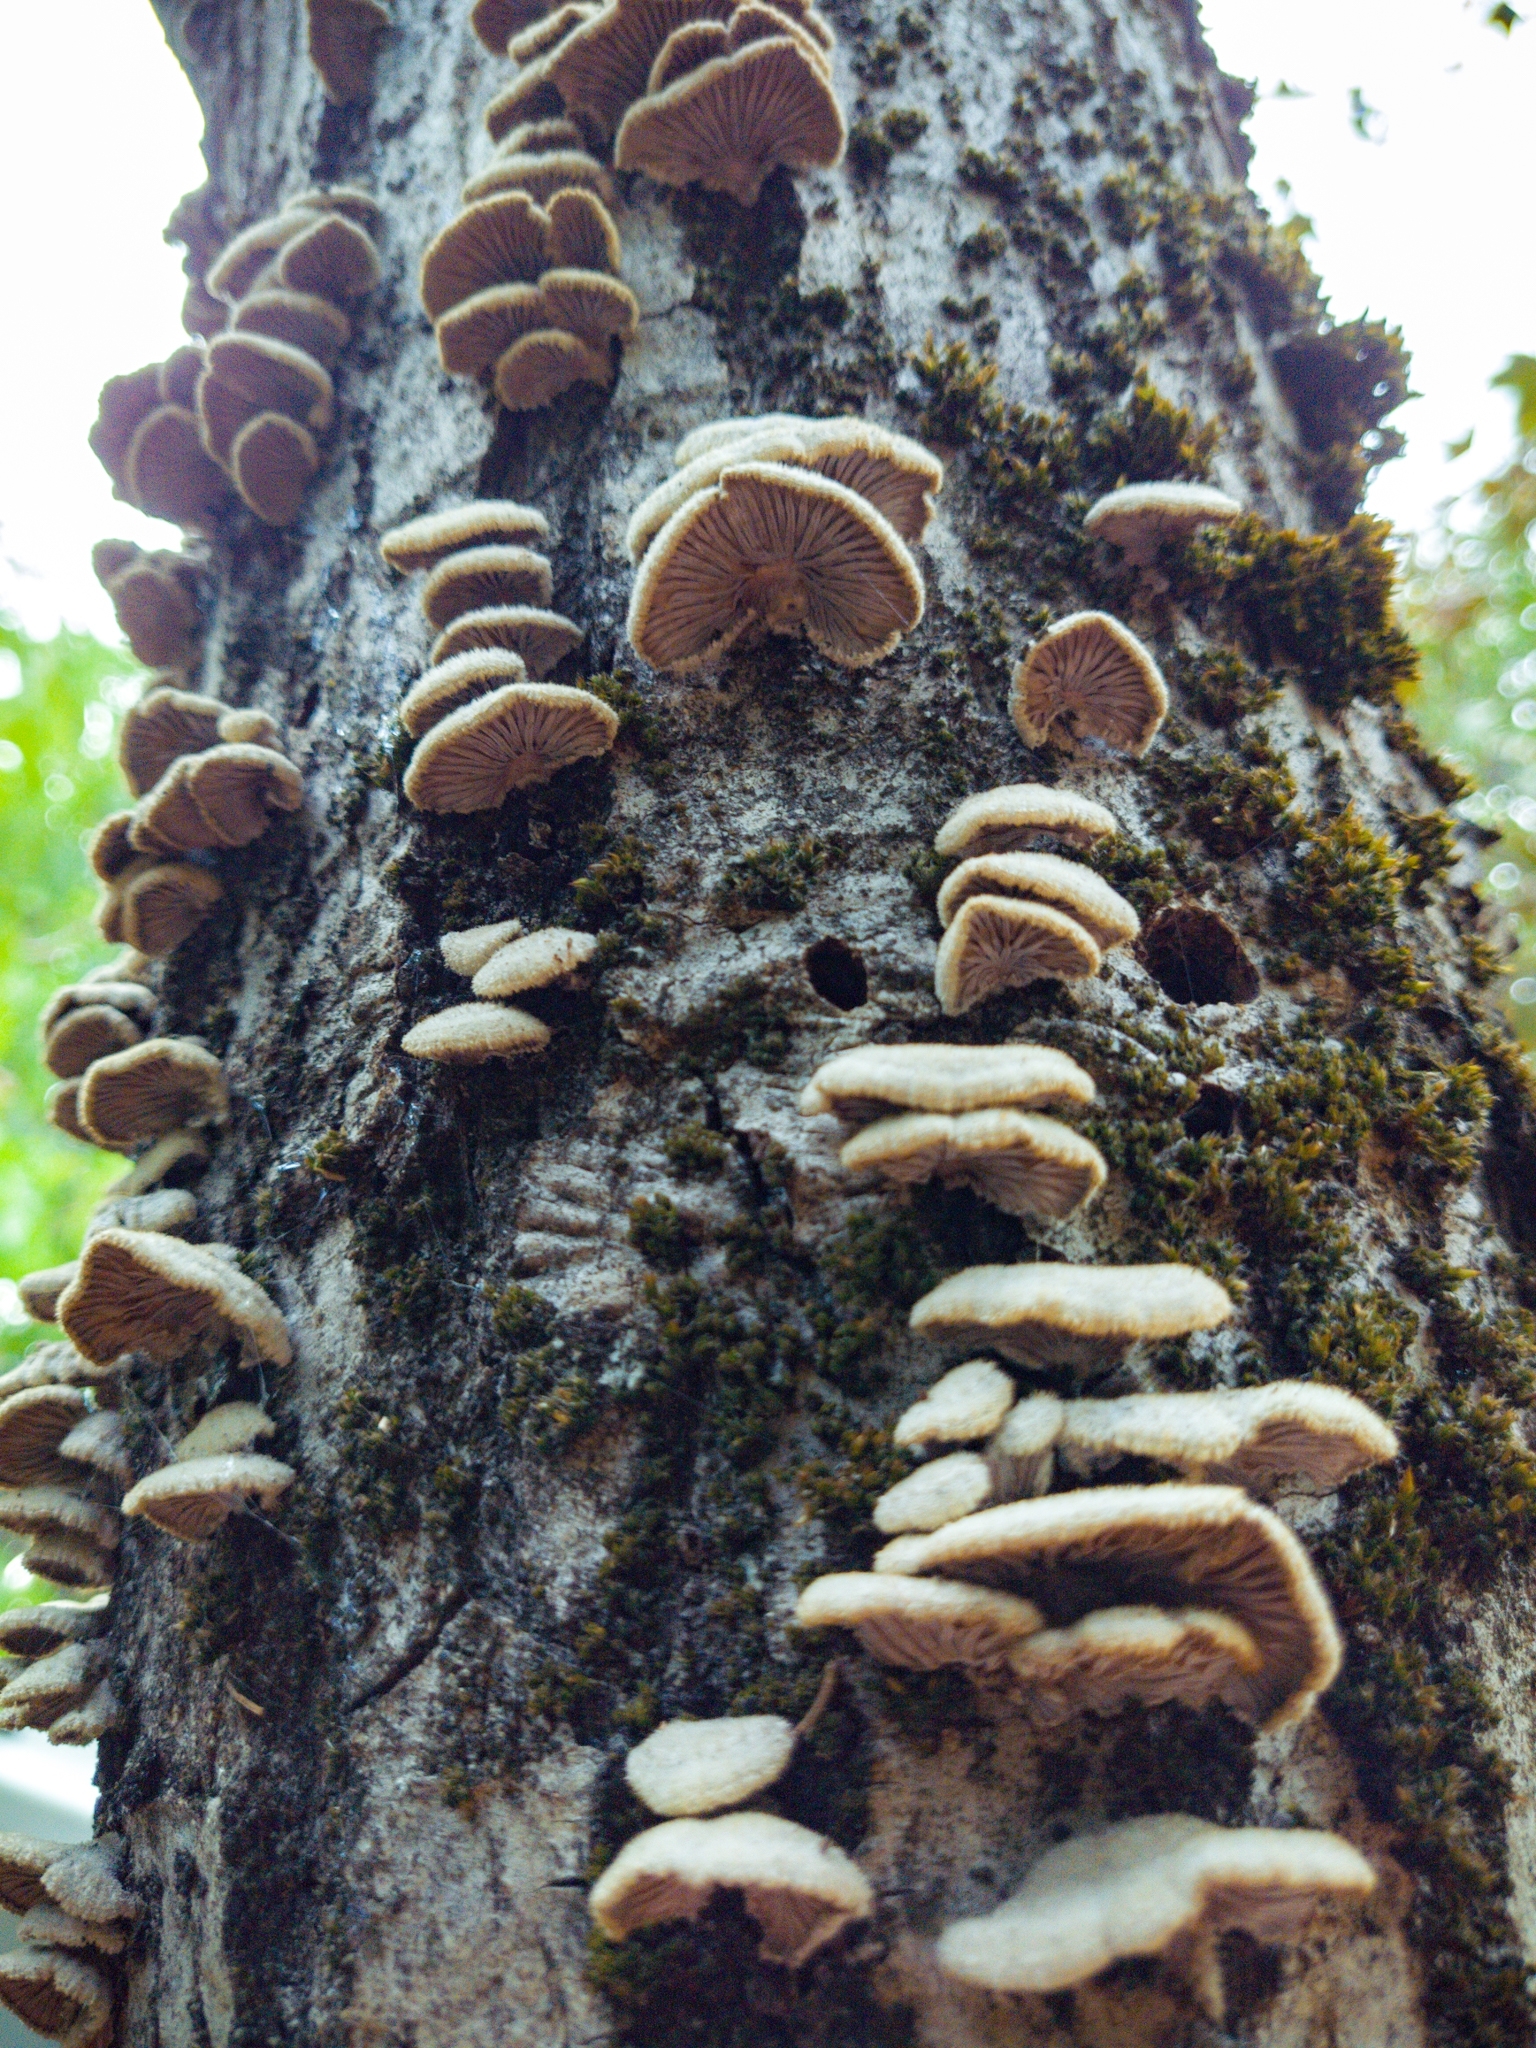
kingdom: Fungi
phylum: Basidiomycota
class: Agaricomycetes
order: Agaricales
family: Schizophyllaceae
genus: Schizophyllum
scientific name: Schizophyllum commune
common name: Common porecrust
